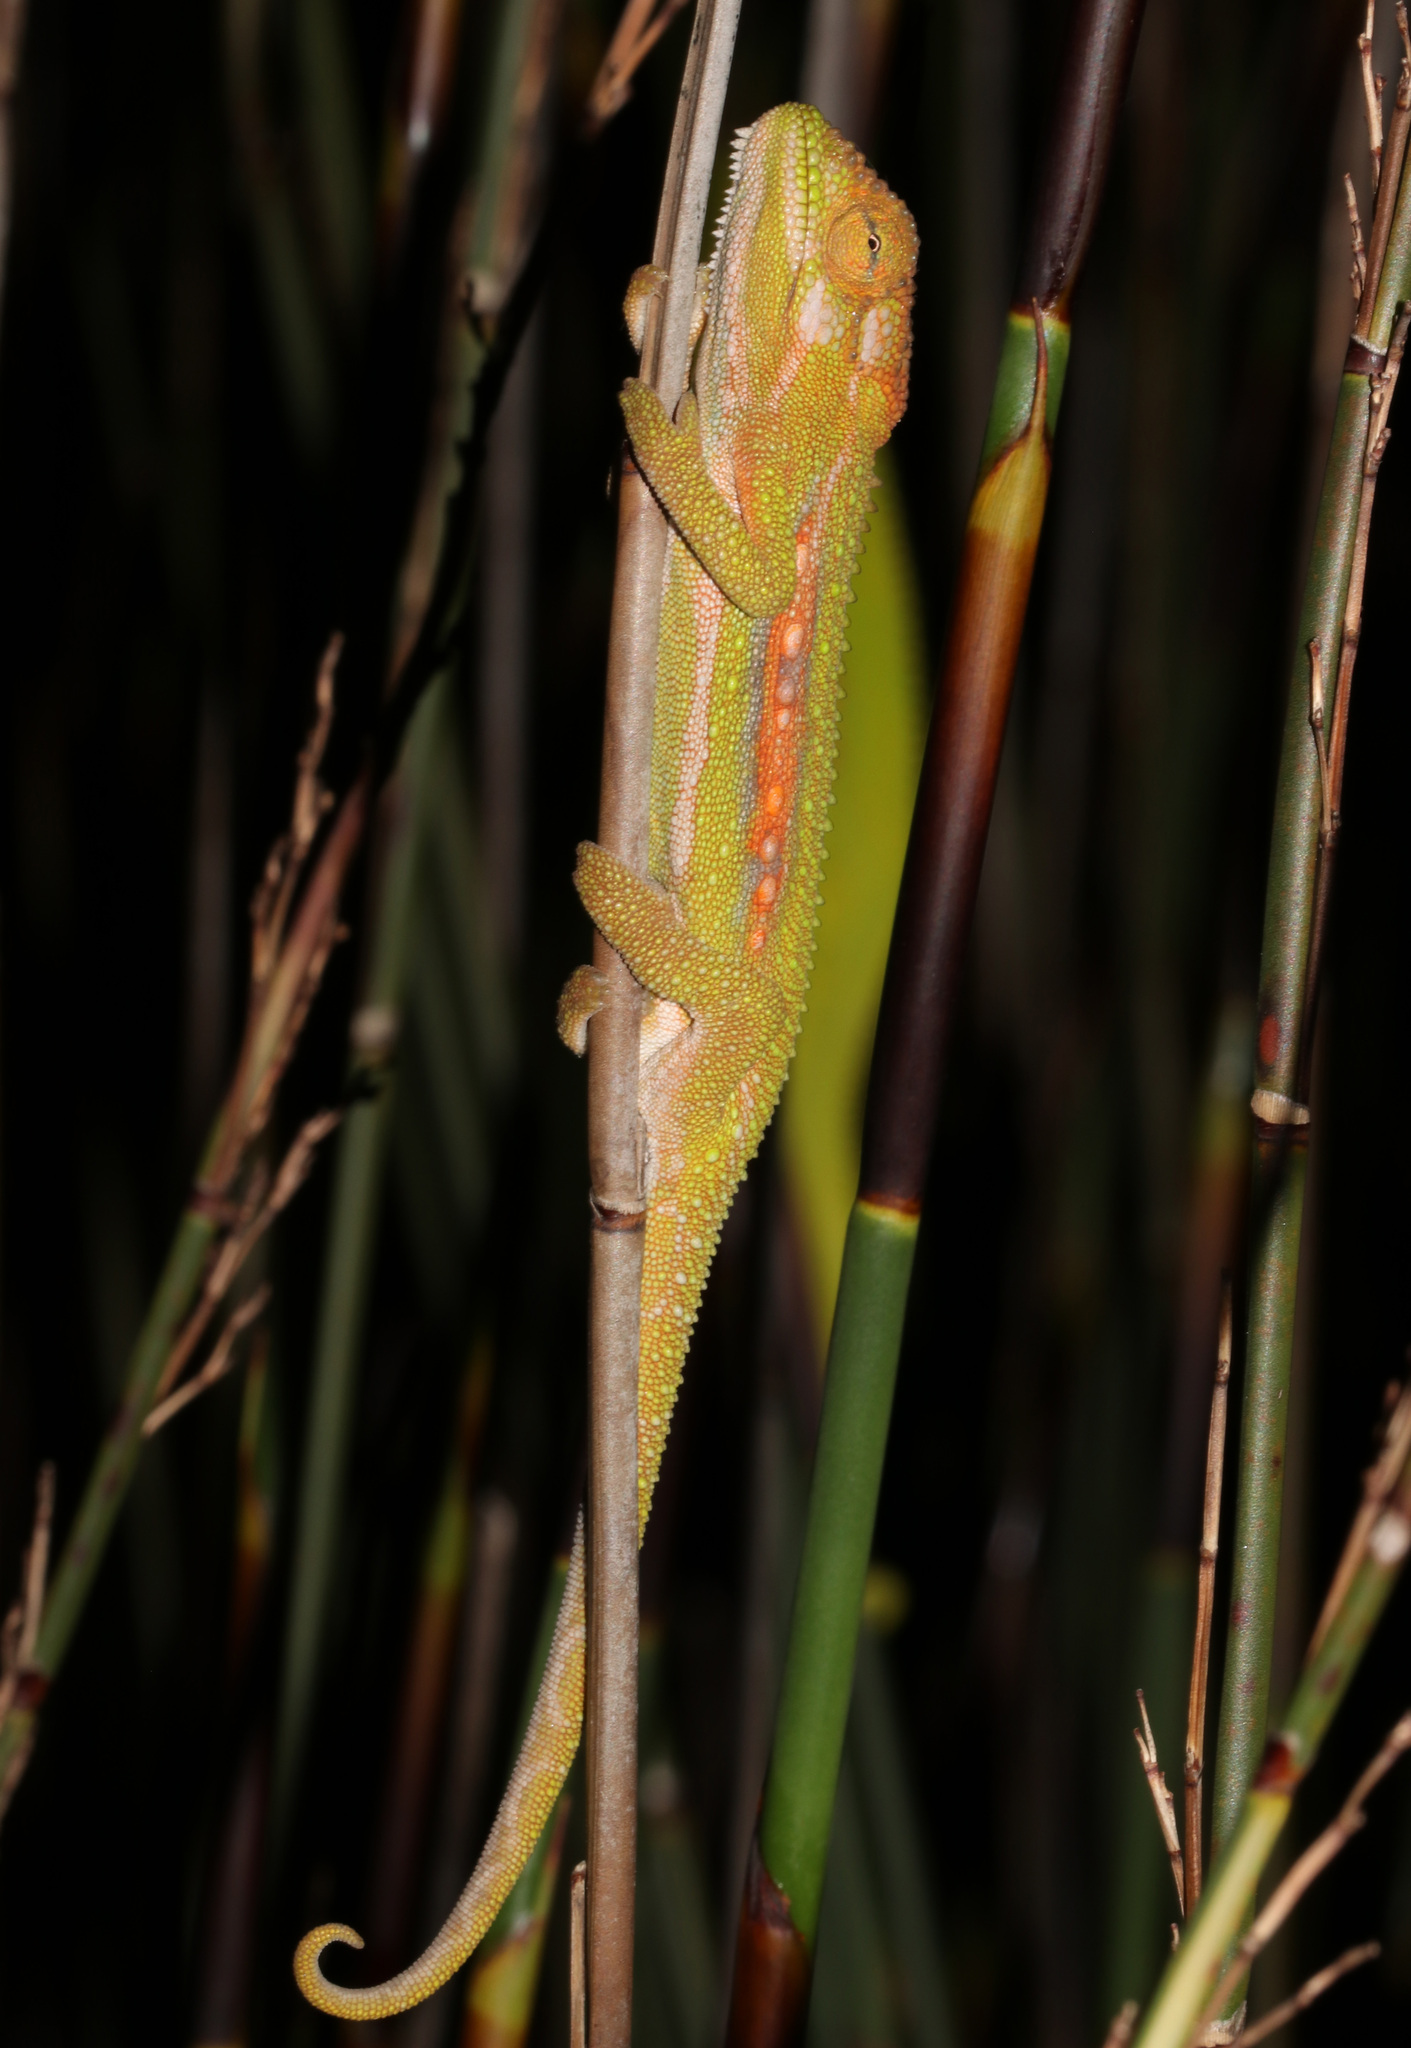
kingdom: Animalia
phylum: Chordata
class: Squamata
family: Chamaeleonidae
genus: Bradypodion
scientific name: Bradypodion pumilum
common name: Cape dwarf chameleon
